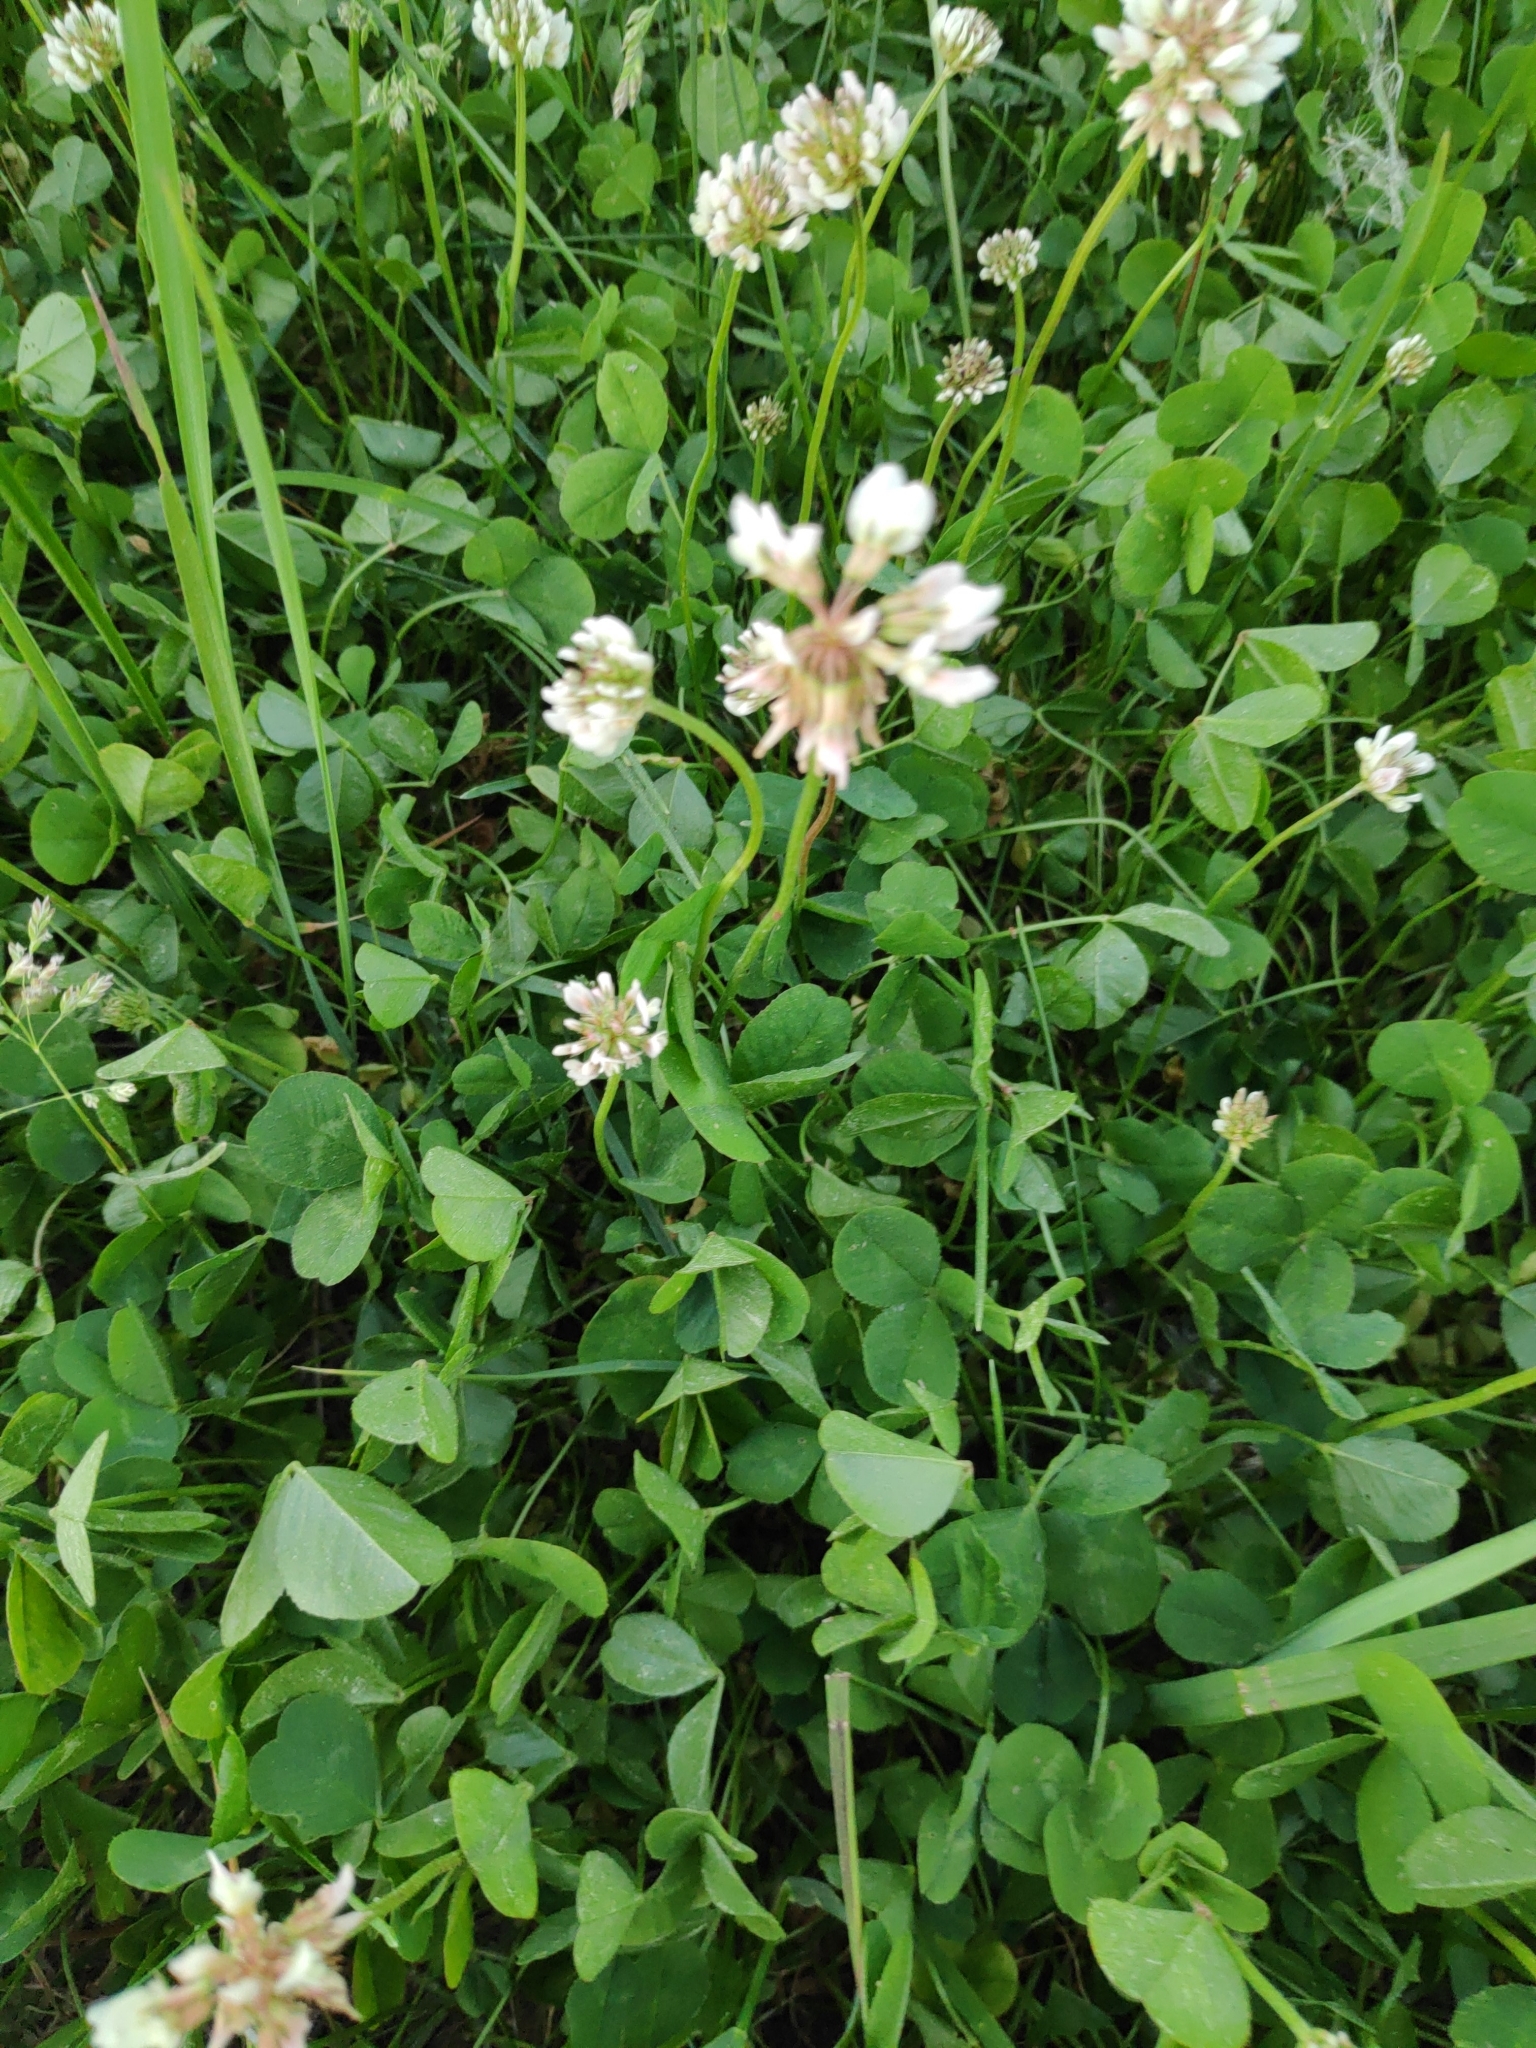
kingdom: Plantae
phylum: Tracheophyta
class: Magnoliopsida
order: Fabales
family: Fabaceae
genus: Trifolium
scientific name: Trifolium repens
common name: White clover
